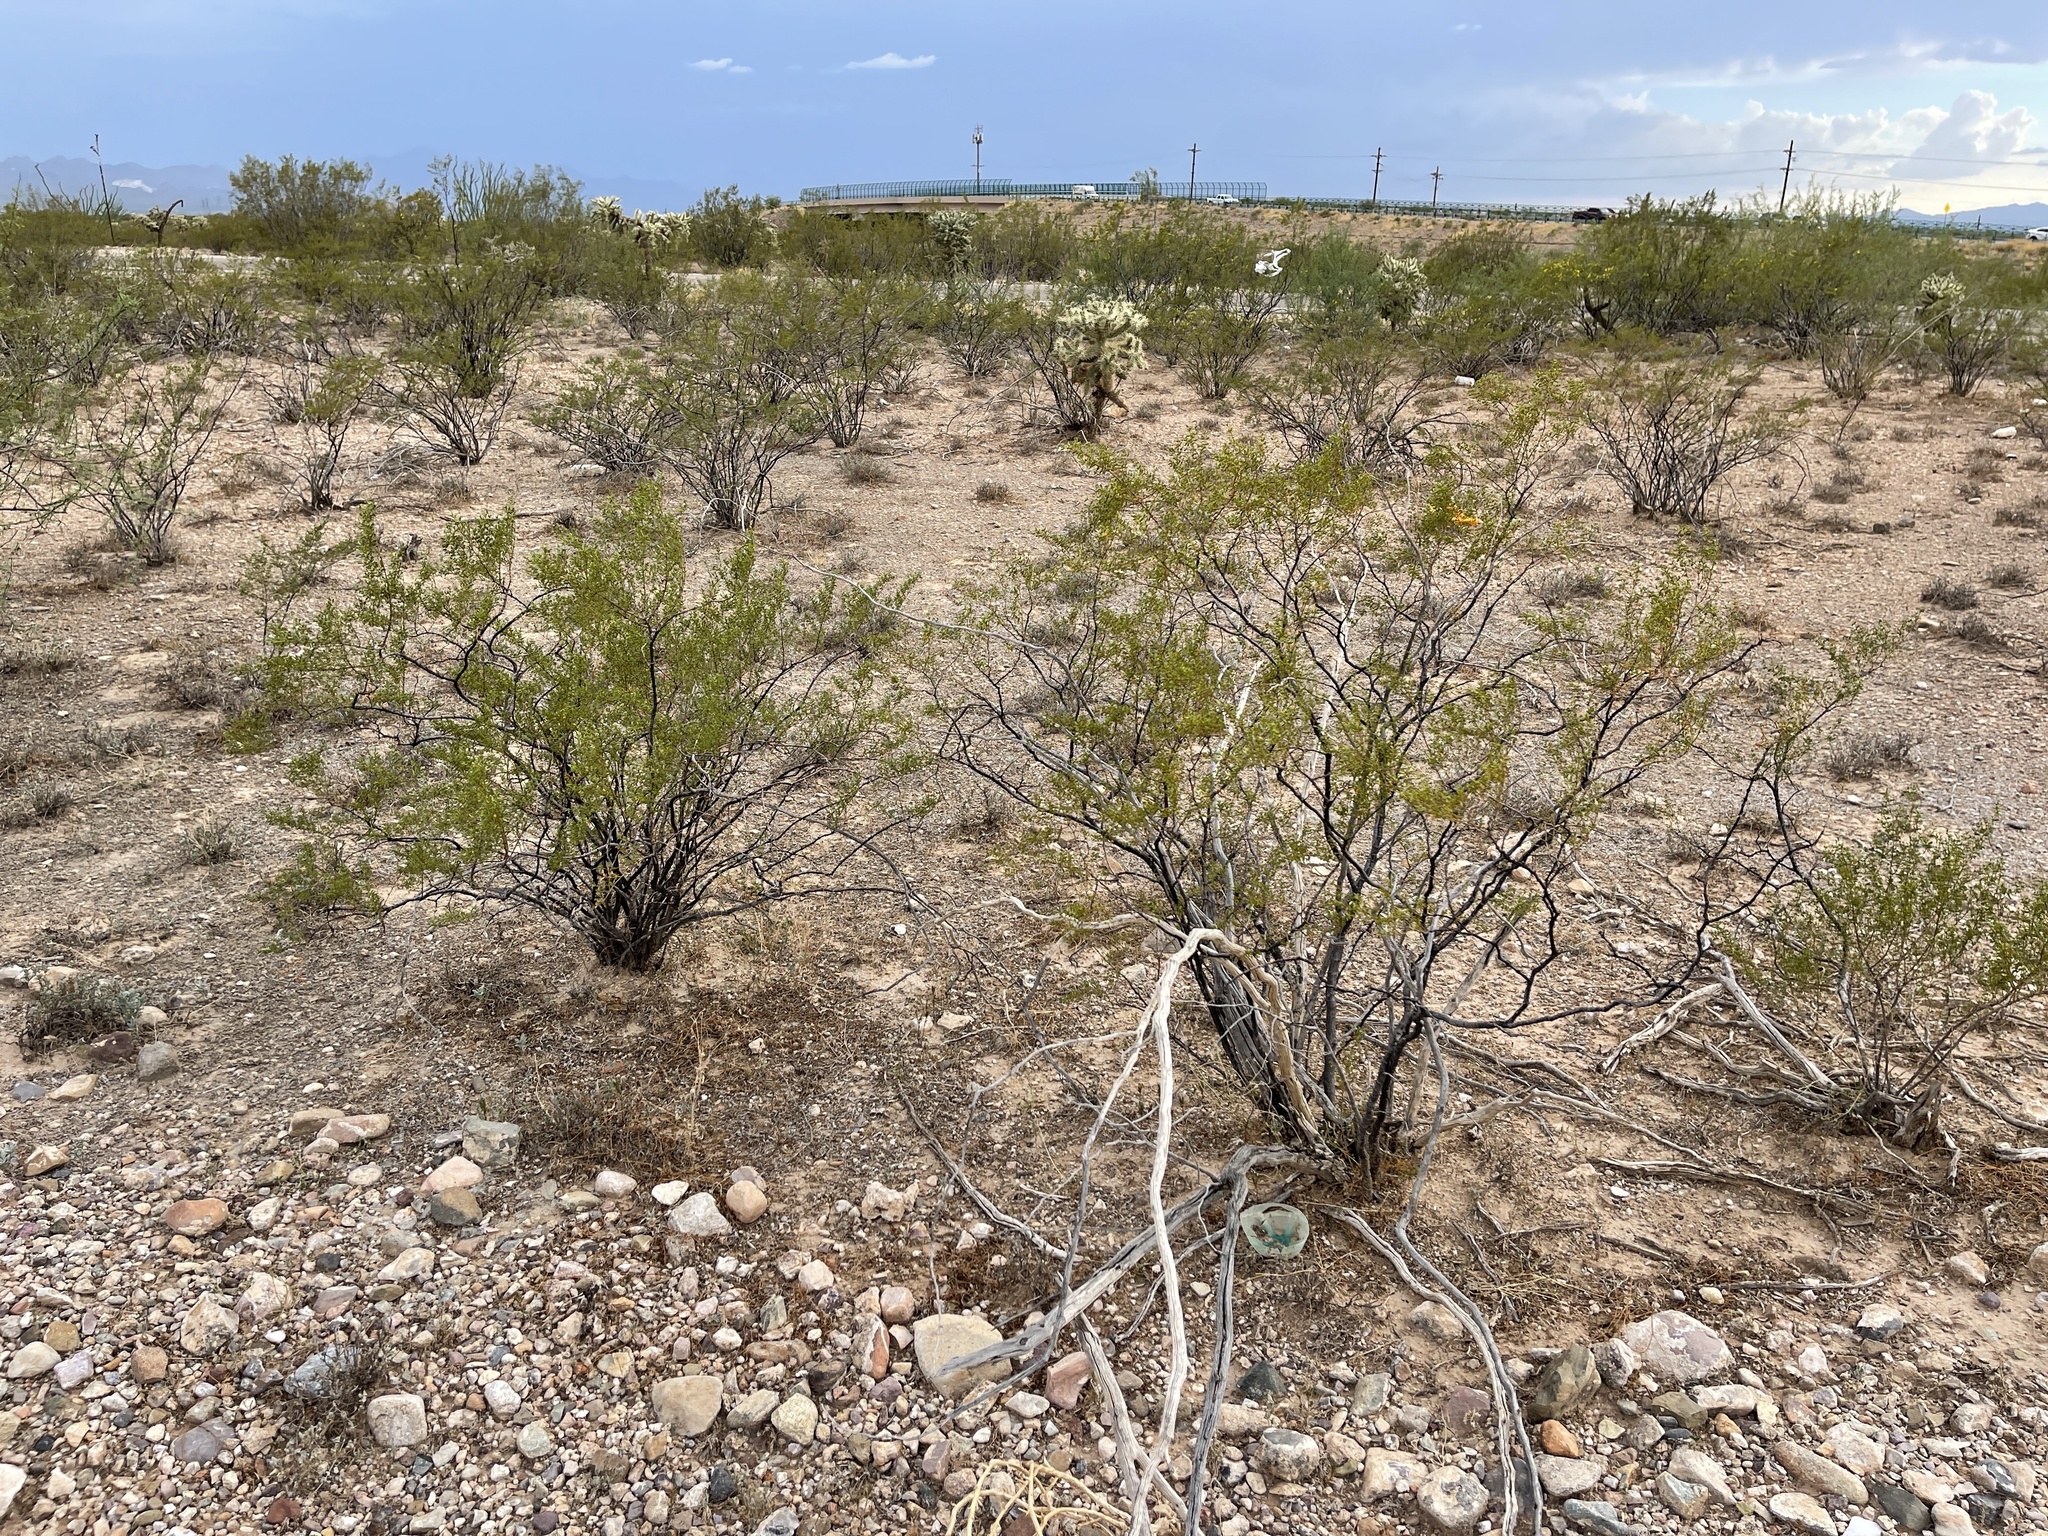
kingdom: Plantae
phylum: Tracheophyta
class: Magnoliopsida
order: Zygophyllales
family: Zygophyllaceae
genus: Larrea
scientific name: Larrea tridentata
